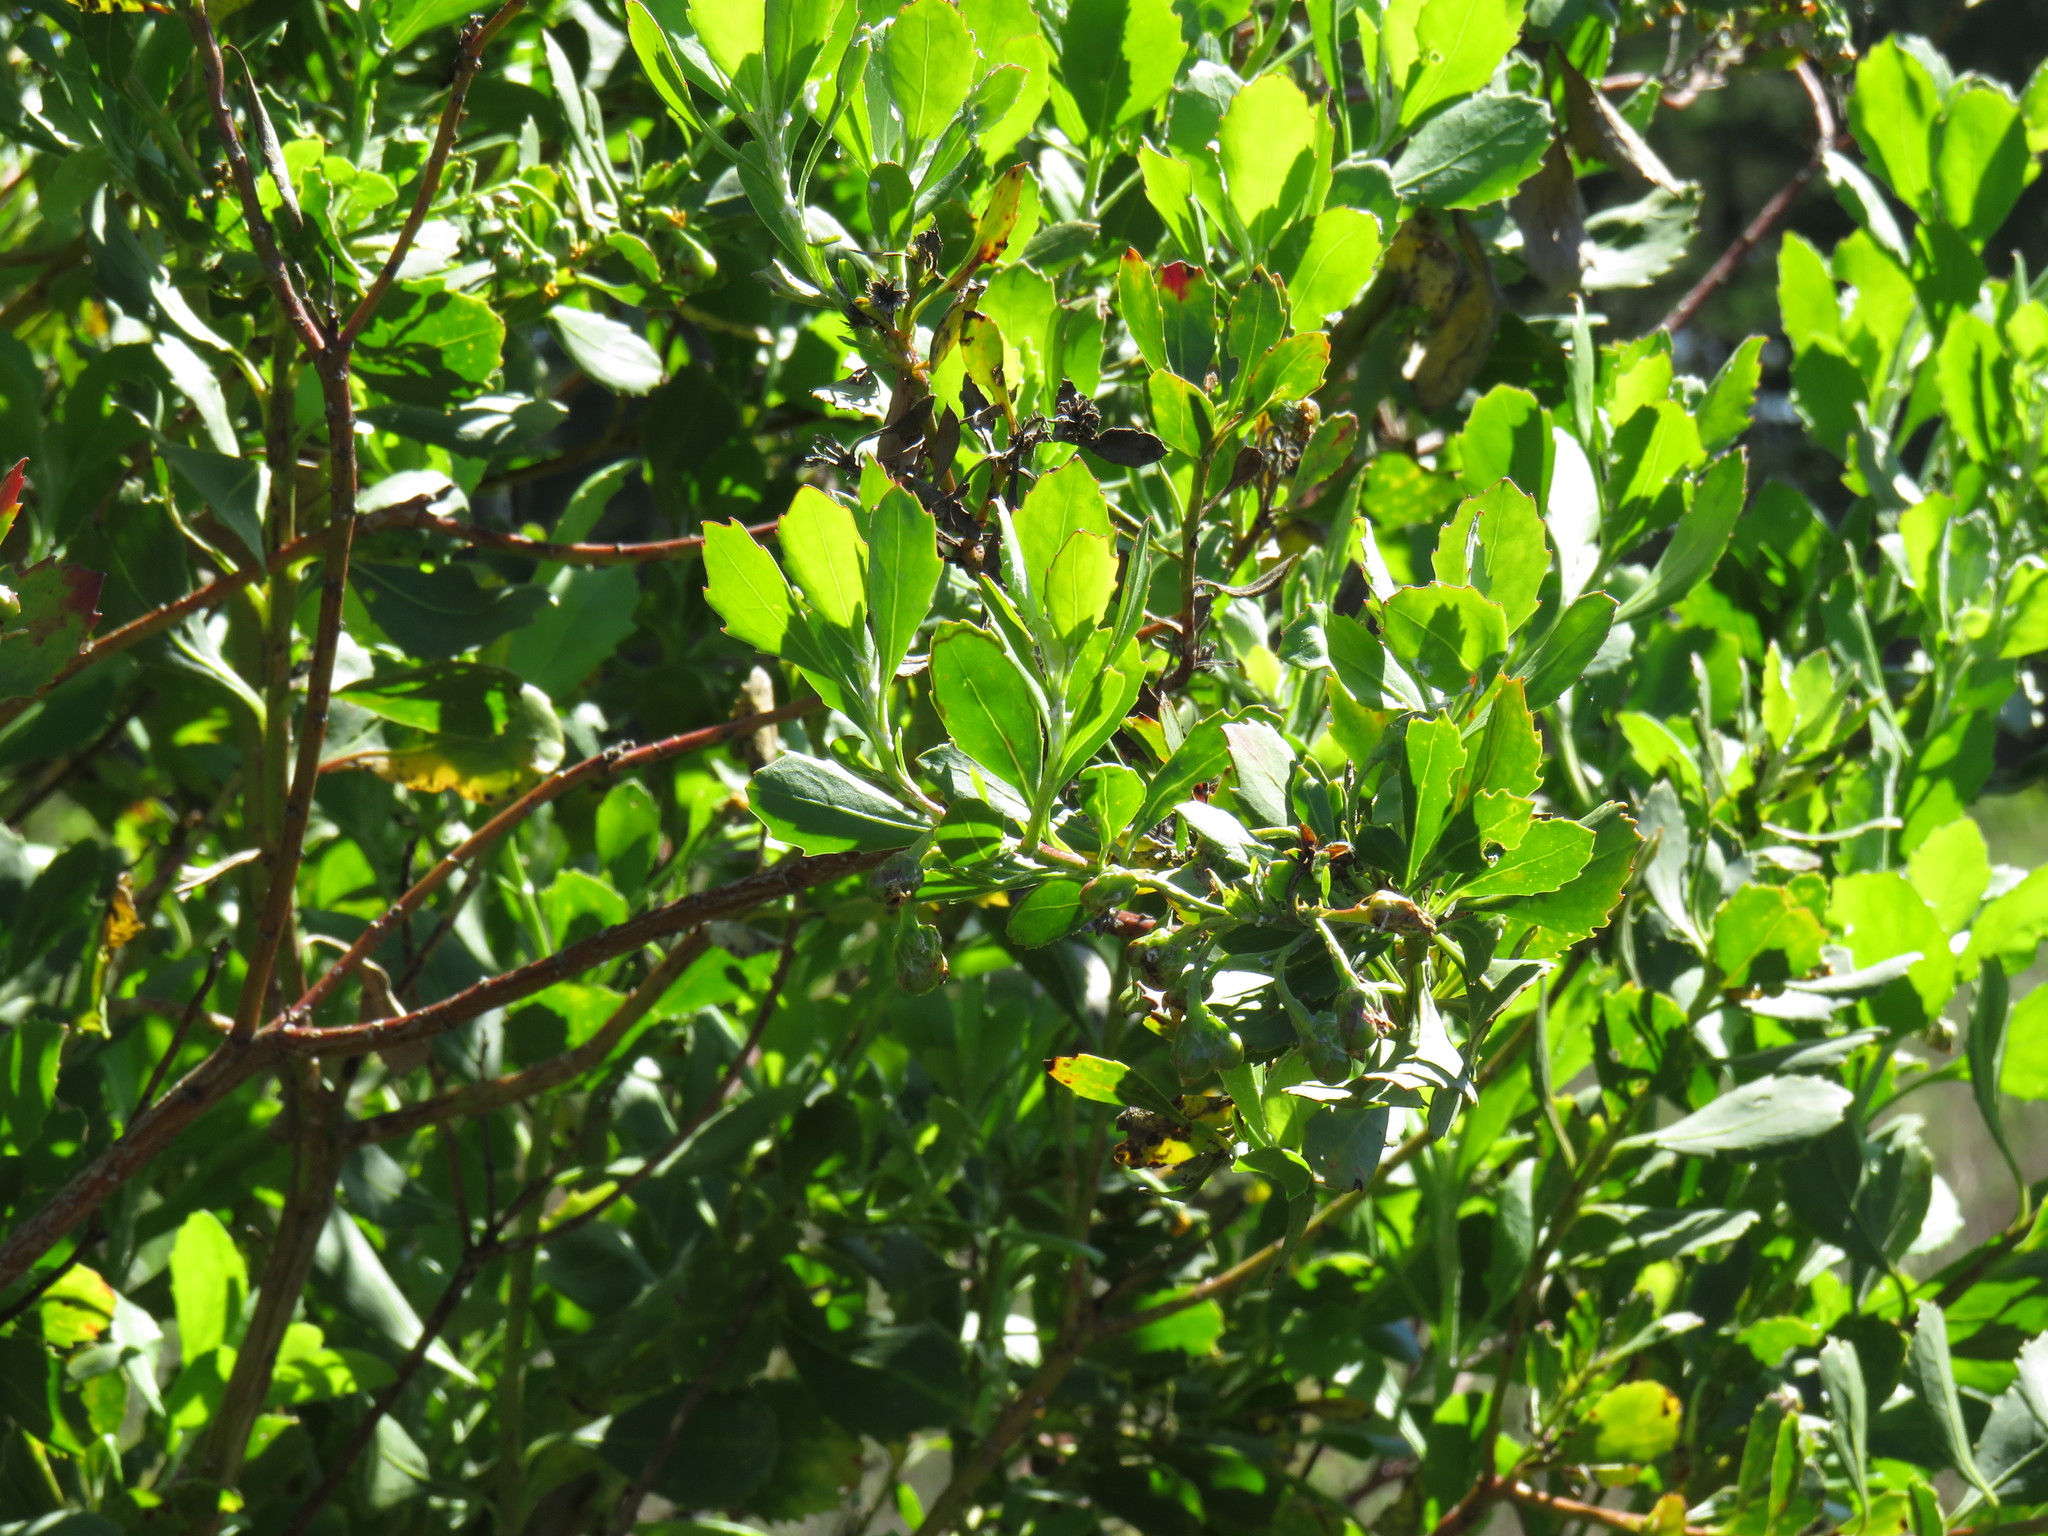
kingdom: Plantae
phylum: Tracheophyta
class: Magnoliopsida
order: Asterales
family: Asteraceae
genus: Osteospermum
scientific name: Osteospermum moniliferum
